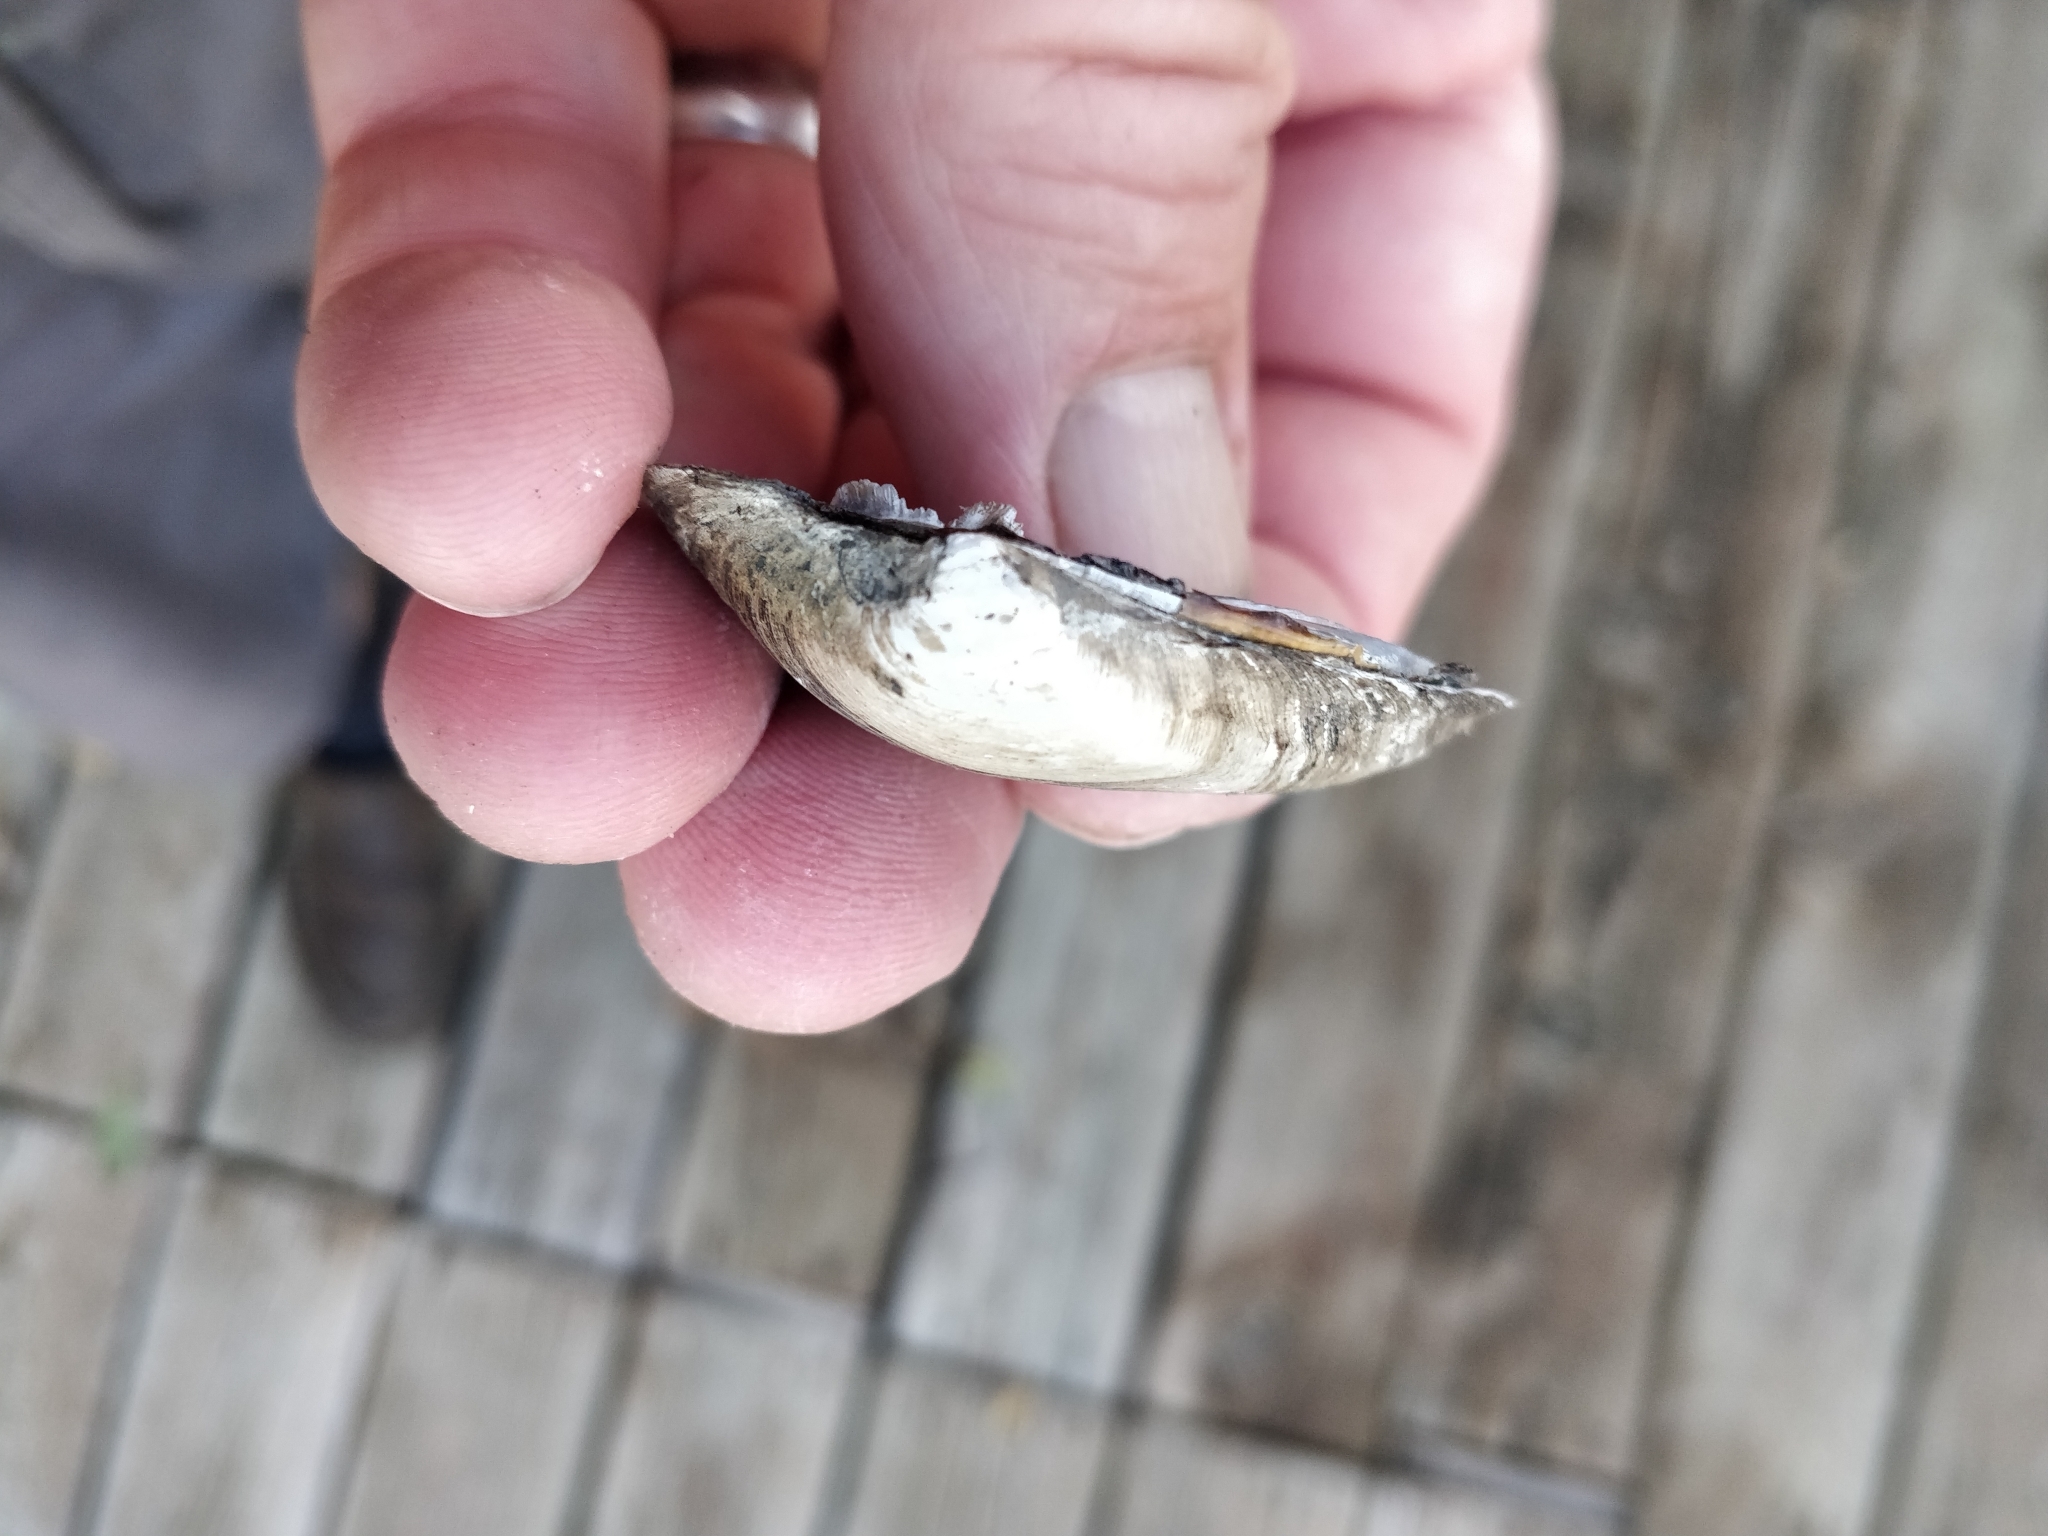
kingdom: Animalia
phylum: Mollusca
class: Bivalvia
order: Unionida
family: Unionidae
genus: Fusconaia
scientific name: Fusconaia flava
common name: Wabash pigtoe
